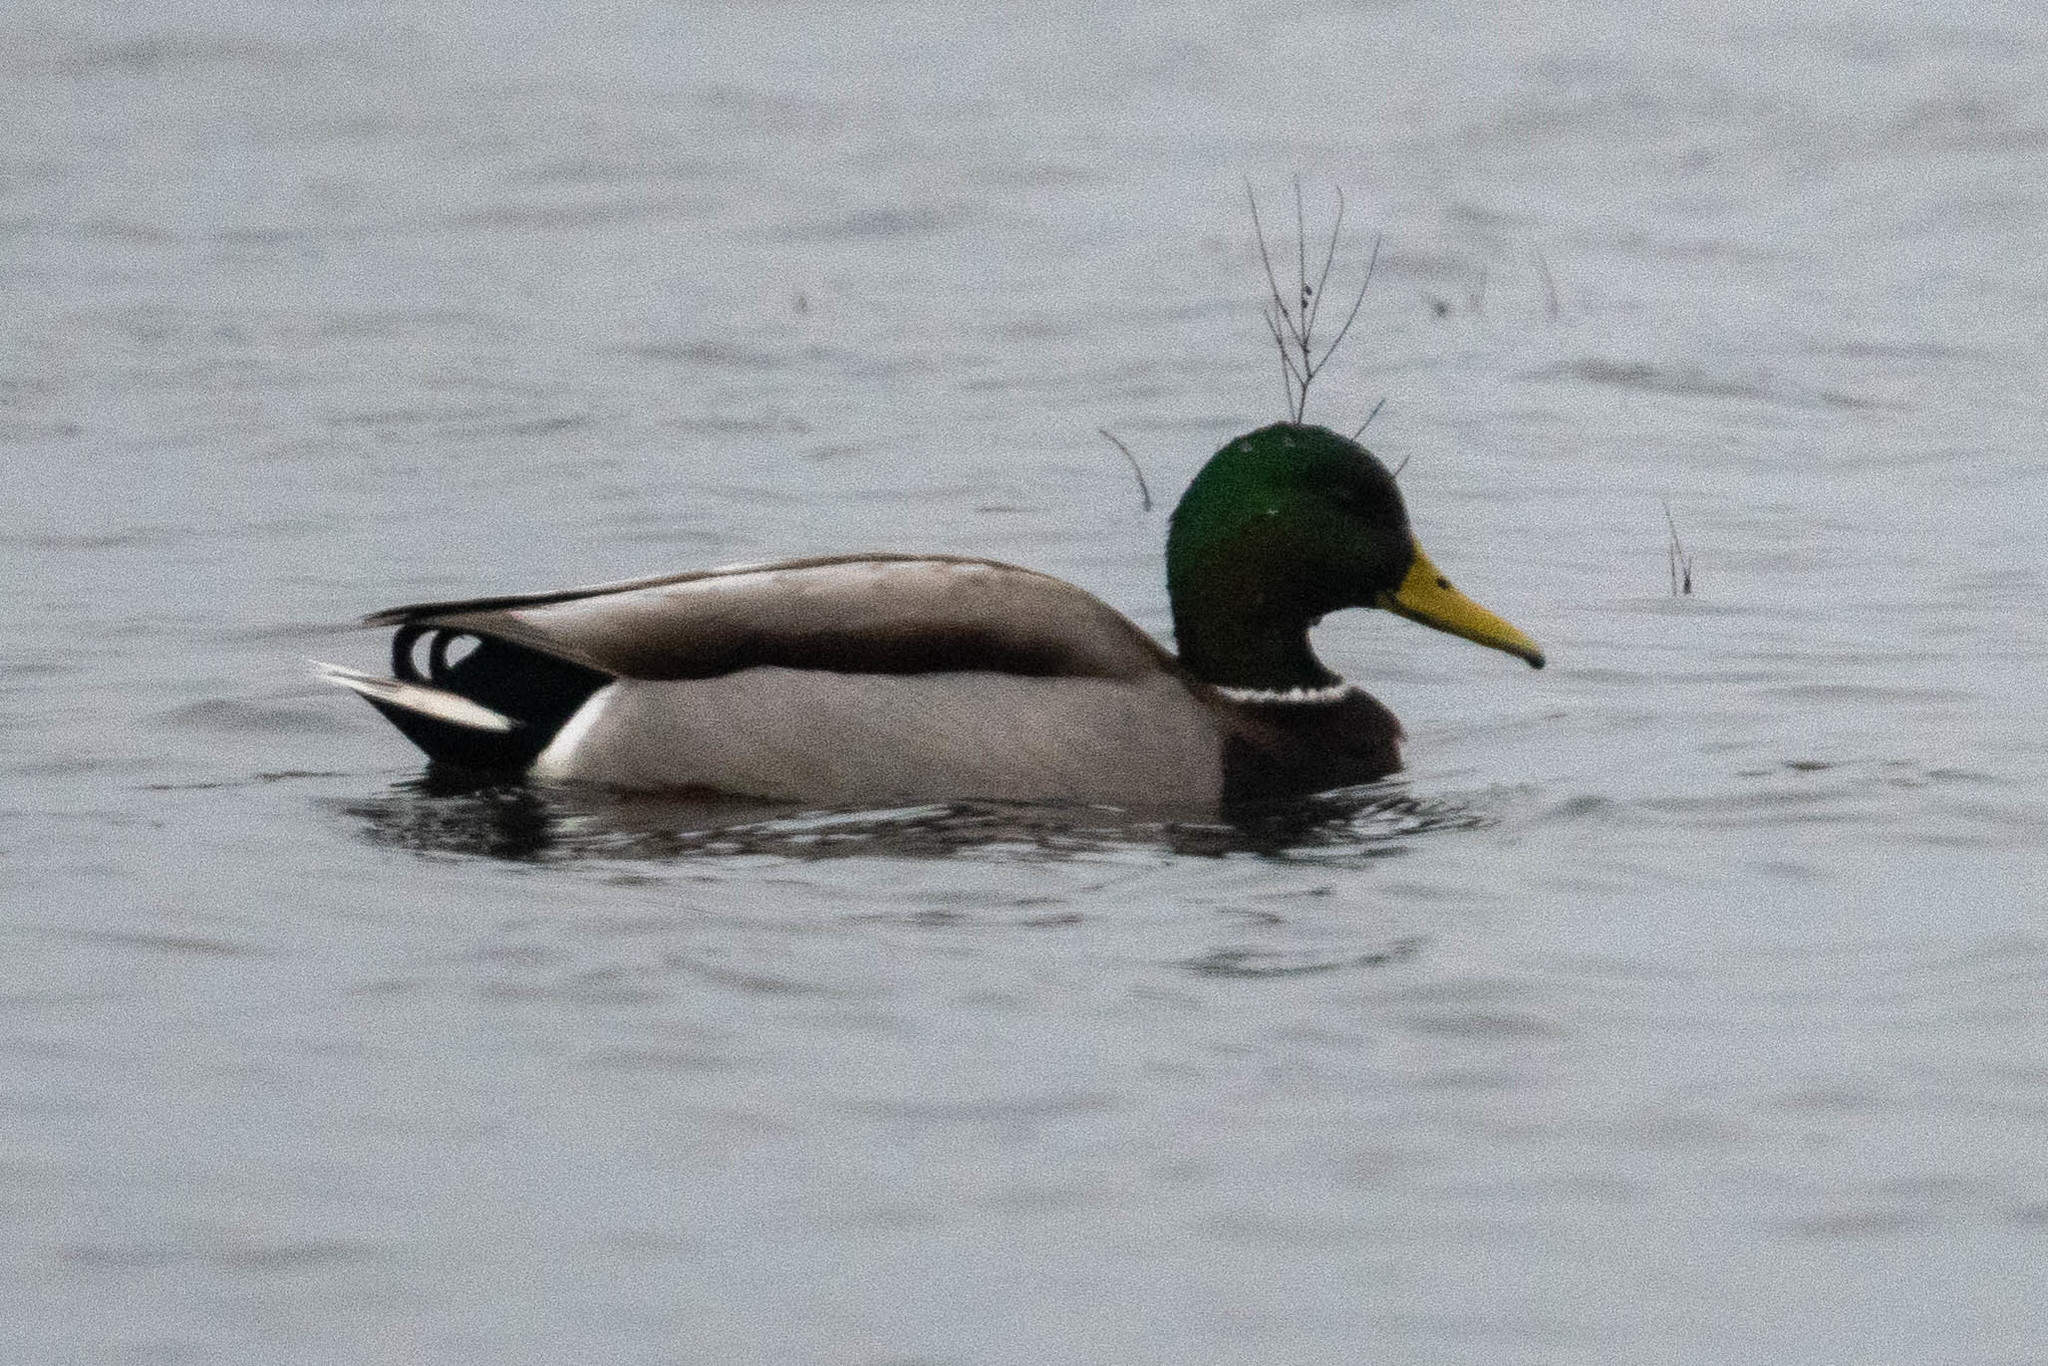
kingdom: Animalia
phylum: Chordata
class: Aves
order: Anseriformes
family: Anatidae
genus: Anas
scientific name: Anas platyrhynchos
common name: Mallard
